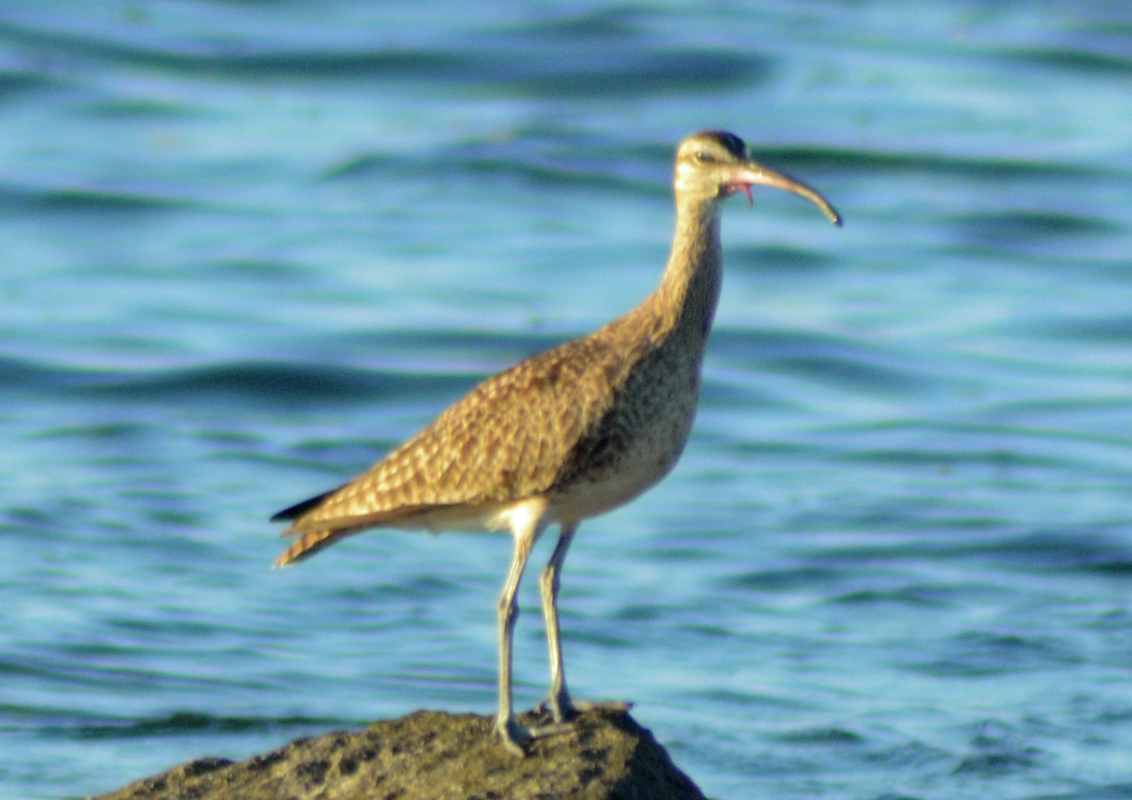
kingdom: Animalia
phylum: Chordata
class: Aves
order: Charadriiformes
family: Scolopacidae
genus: Numenius
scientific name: Numenius phaeopus
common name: Whimbrel
